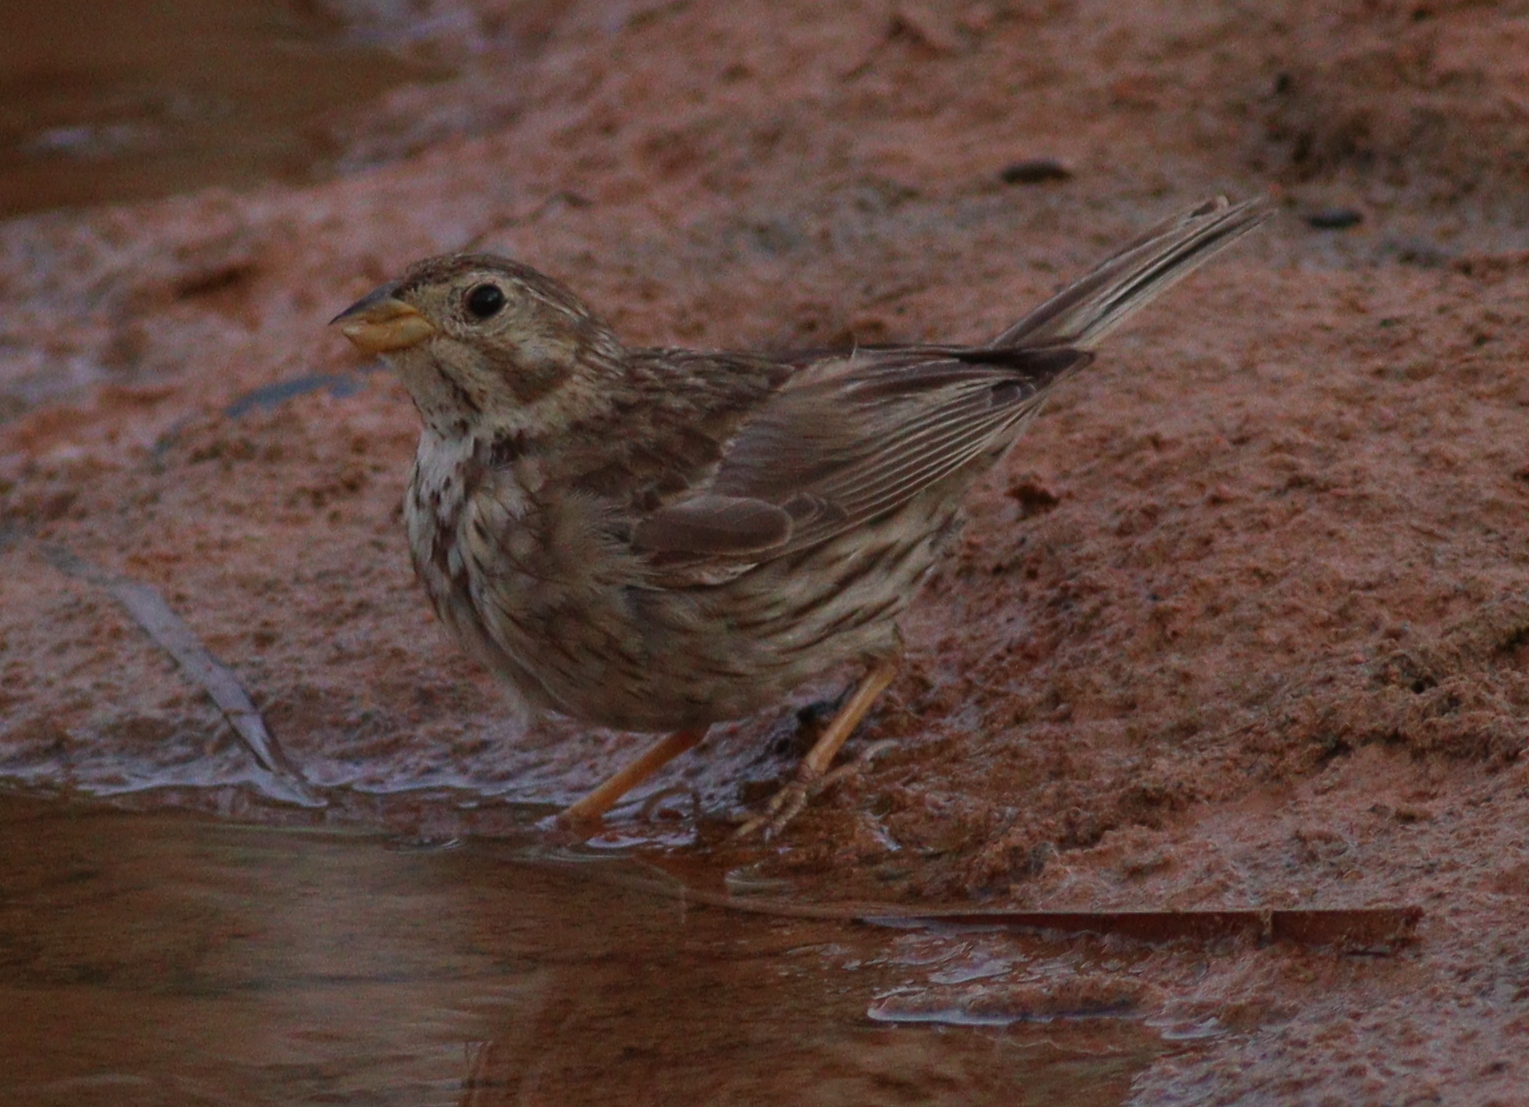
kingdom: Animalia
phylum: Chordata
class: Aves
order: Passeriformes
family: Emberizidae
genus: Emberiza
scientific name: Emberiza calandra
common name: Corn bunting
